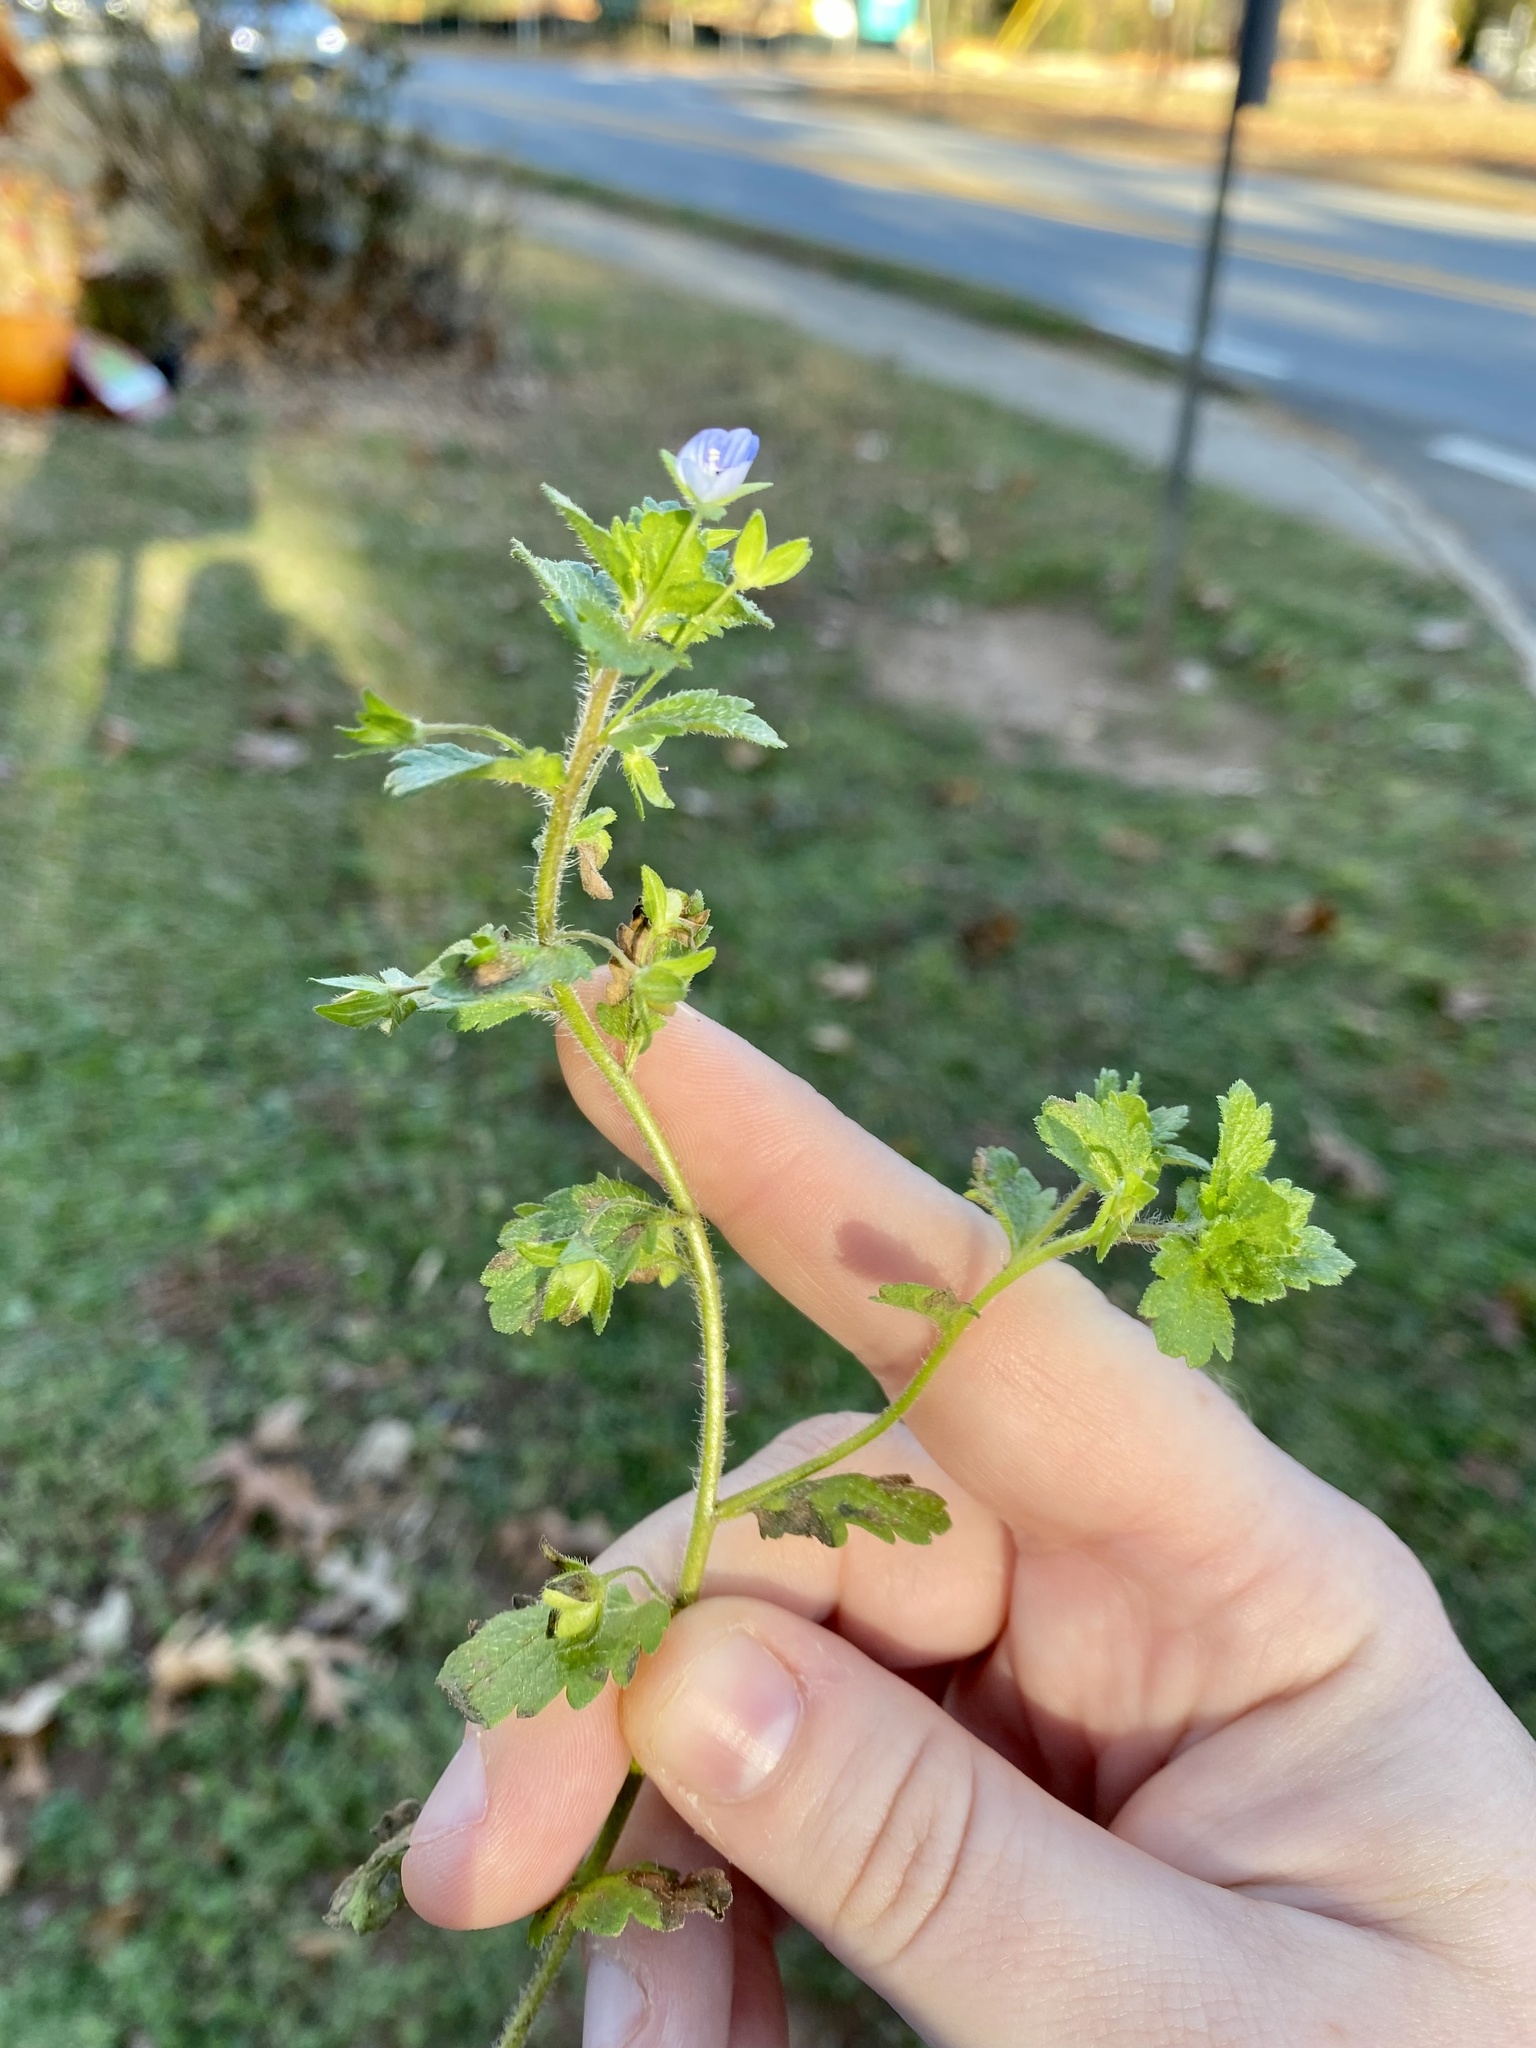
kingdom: Plantae
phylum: Tracheophyta
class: Magnoliopsida
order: Lamiales
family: Plantaginaceae
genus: Veronica
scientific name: Veronica persica
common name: Common field-speedwell
